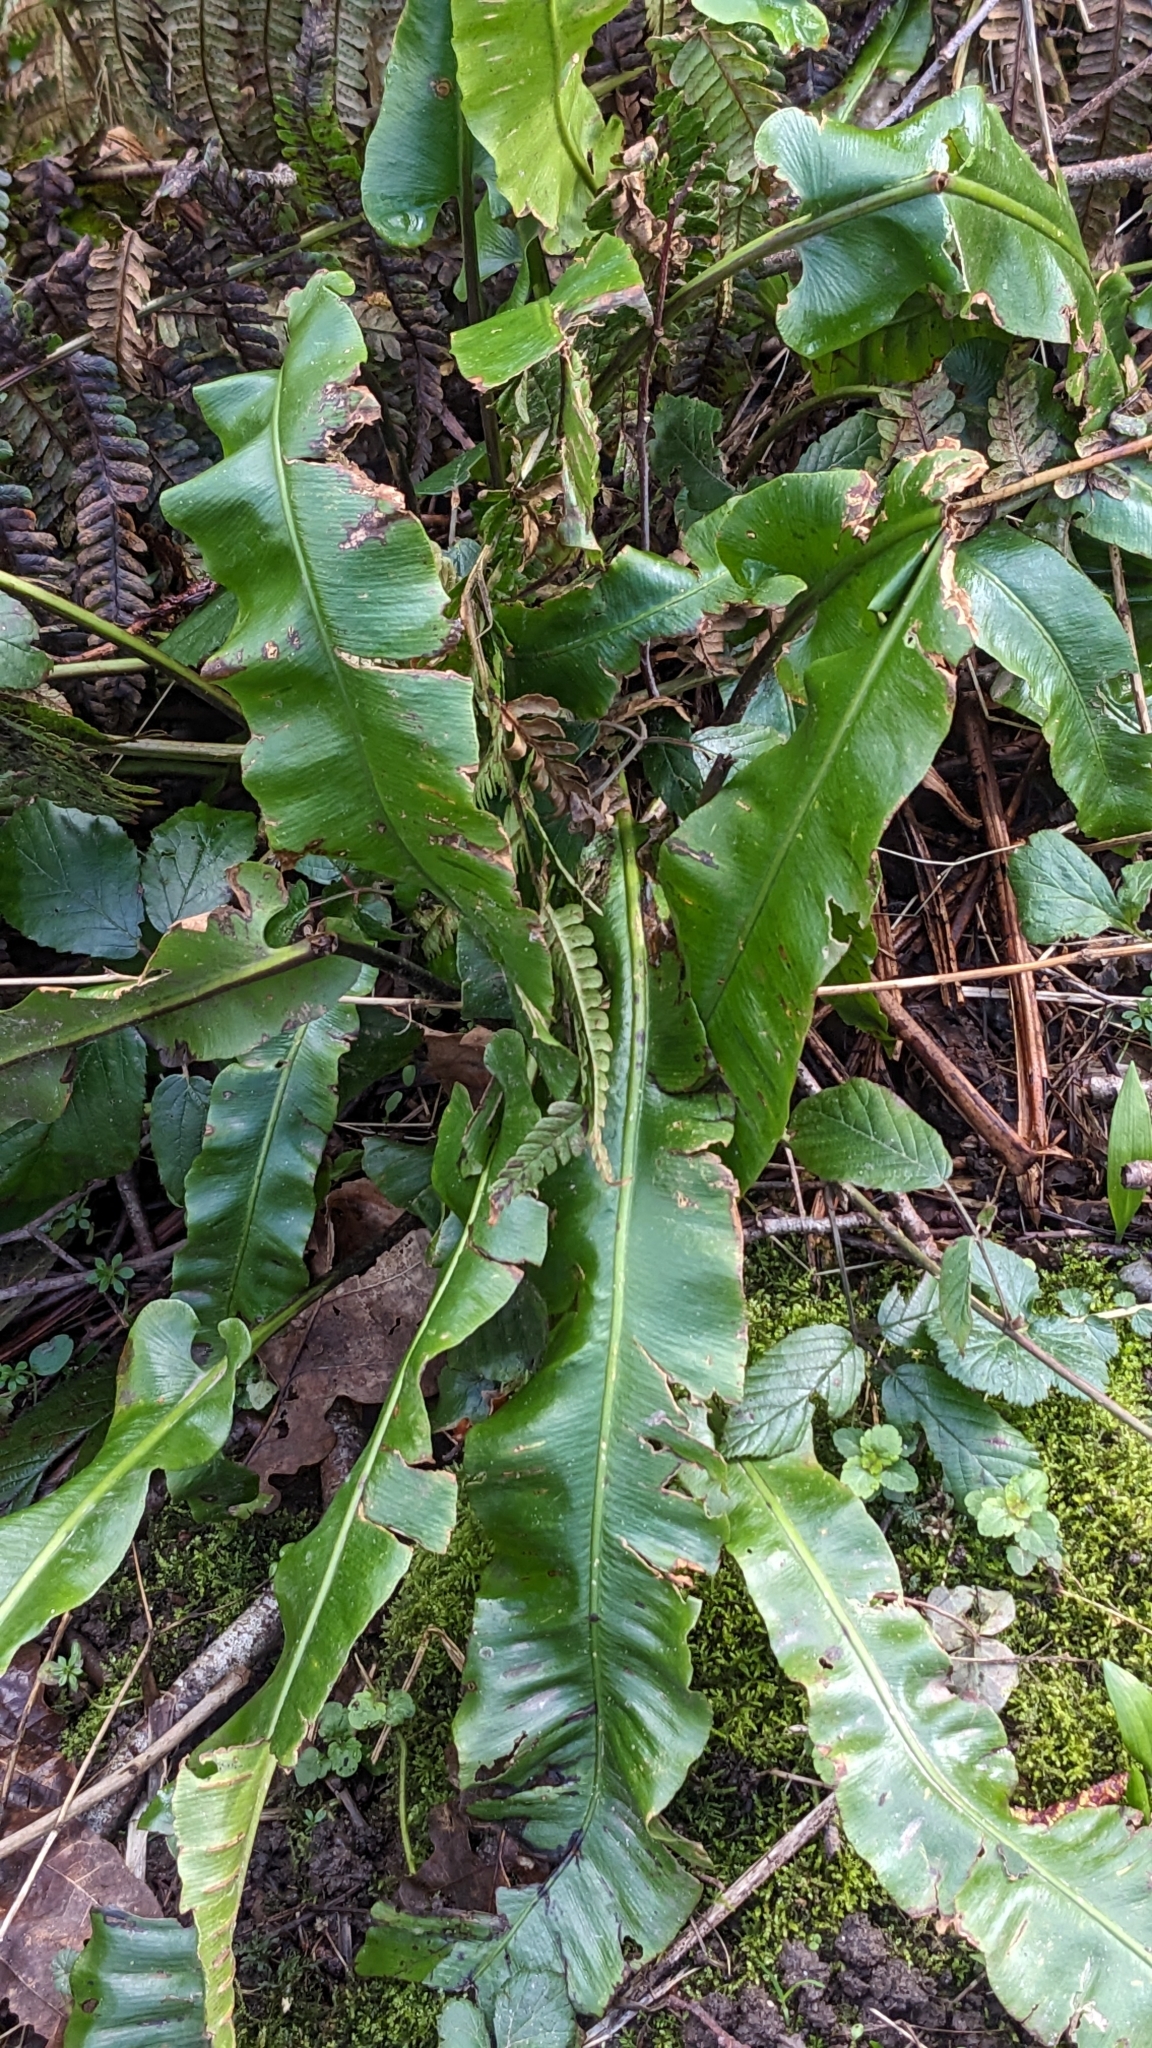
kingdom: Plantae
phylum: Tracheophyta
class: Polypodiopsida
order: Polypodiales
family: Aspleniaceae
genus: Asplenium
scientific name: Asplenium scolopendrium
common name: Hart's-tongue fern
